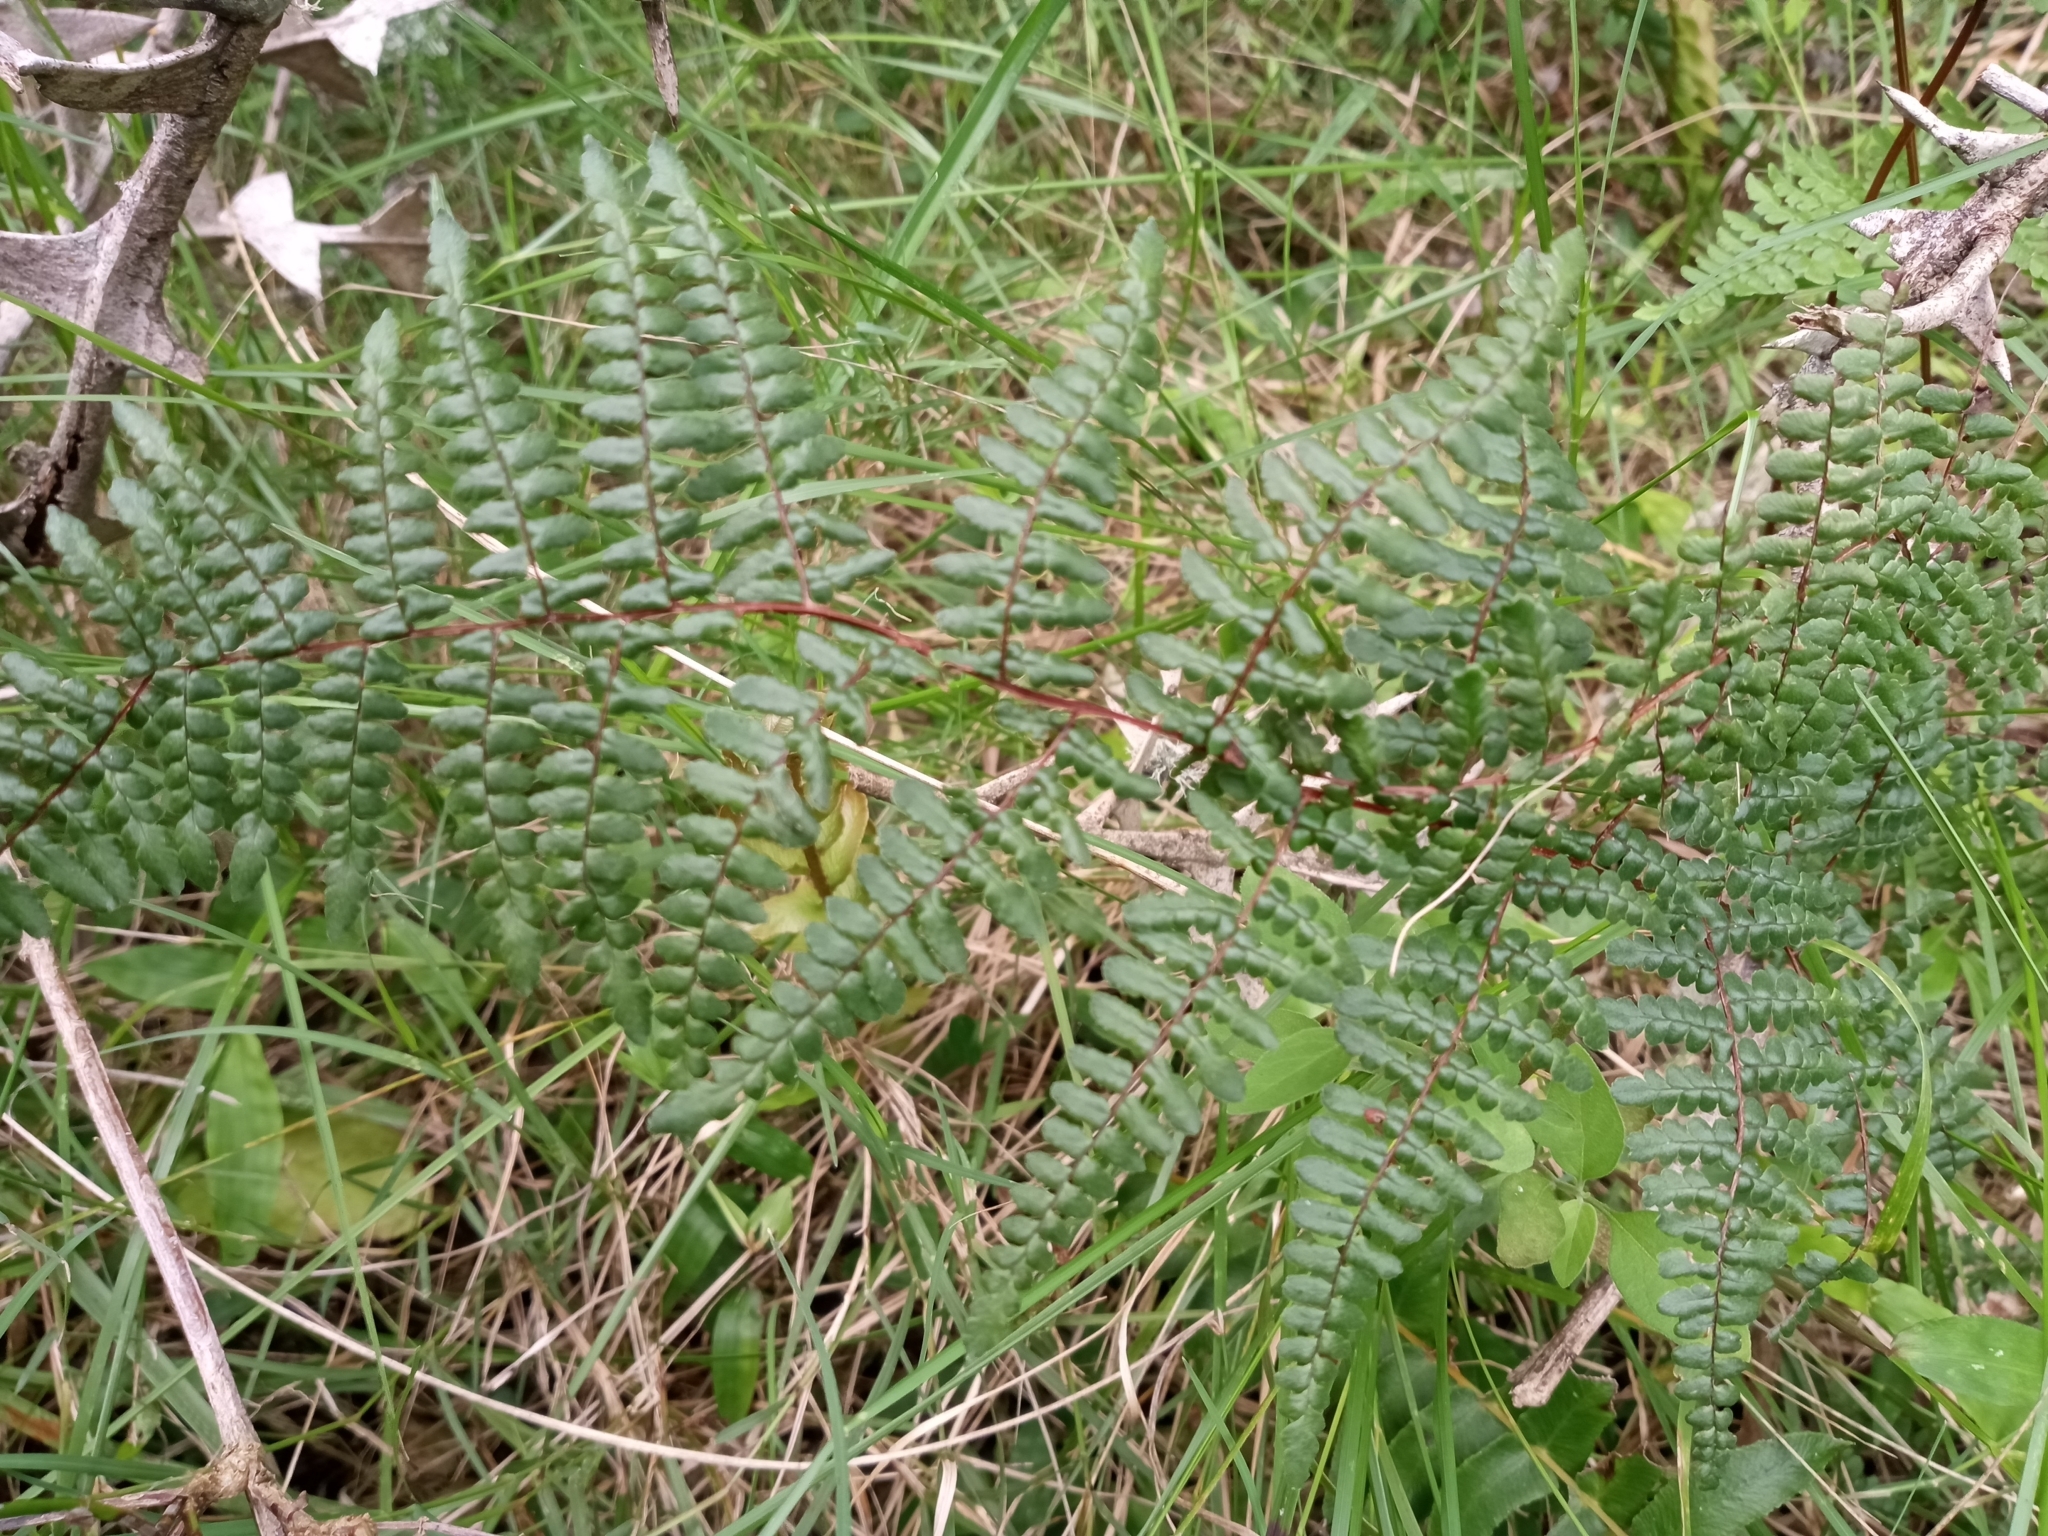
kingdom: Plantae
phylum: Tracheophyta
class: Polypodiopsida
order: Polypodiales
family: Pteridaceae
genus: Adiantopsis
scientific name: Adiantopsis chlorophylla
